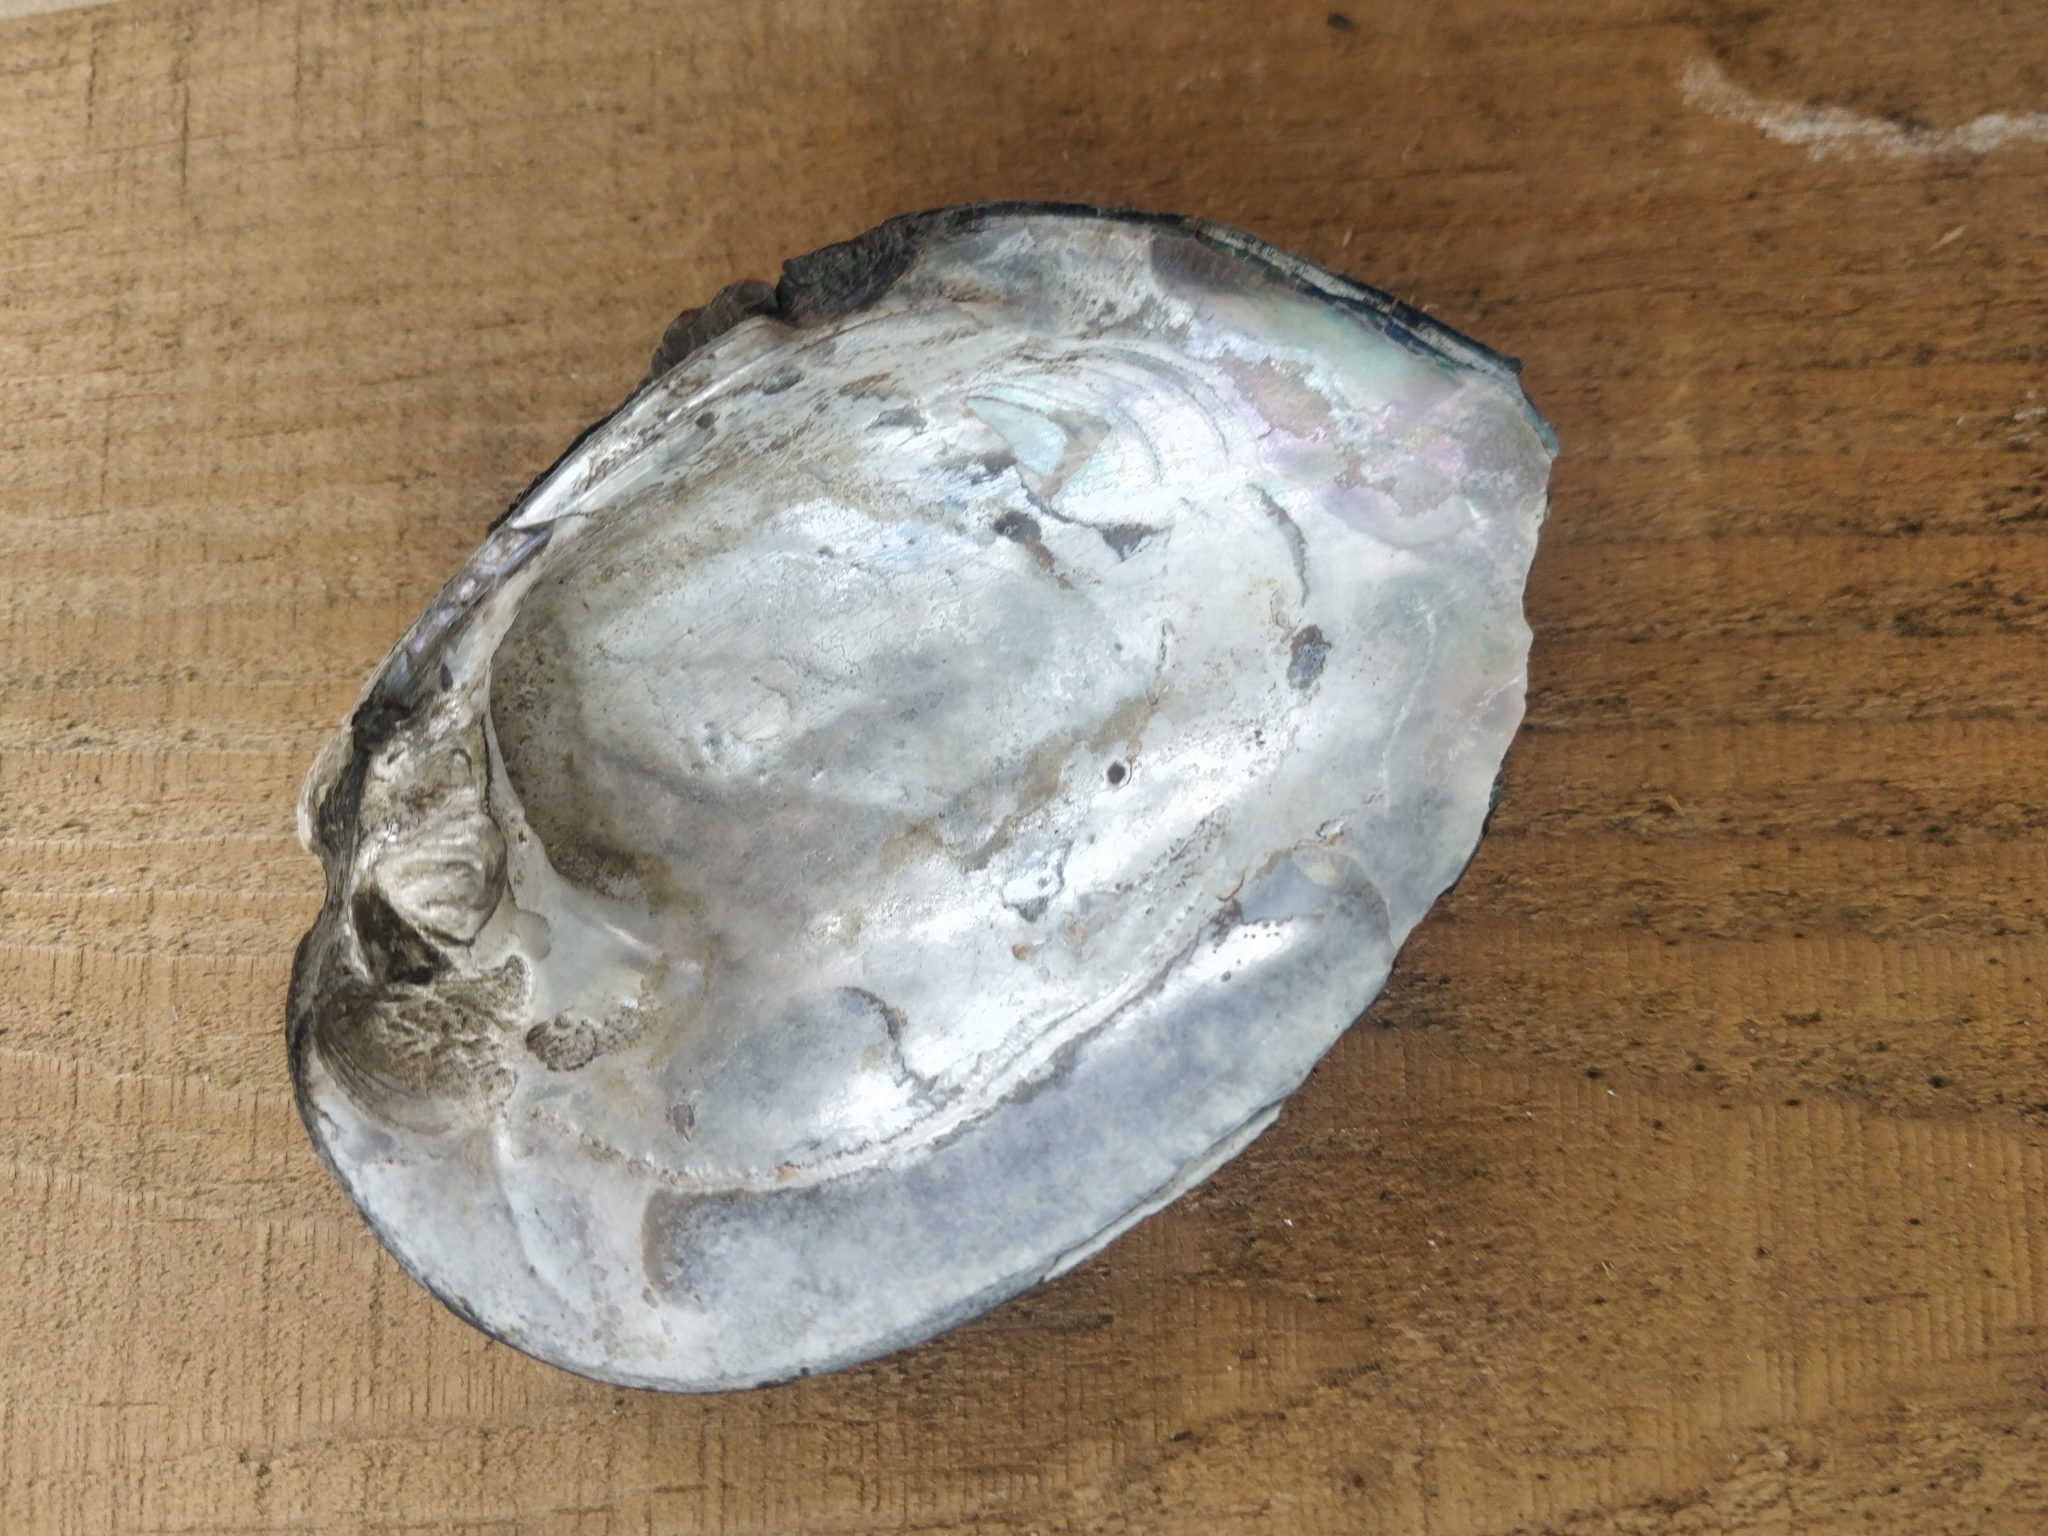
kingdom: Animalia
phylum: Mollusca
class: Bivalvia
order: Unionida
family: Unionidae
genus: Amblema
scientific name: Amblema plicata
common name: Threeridge
